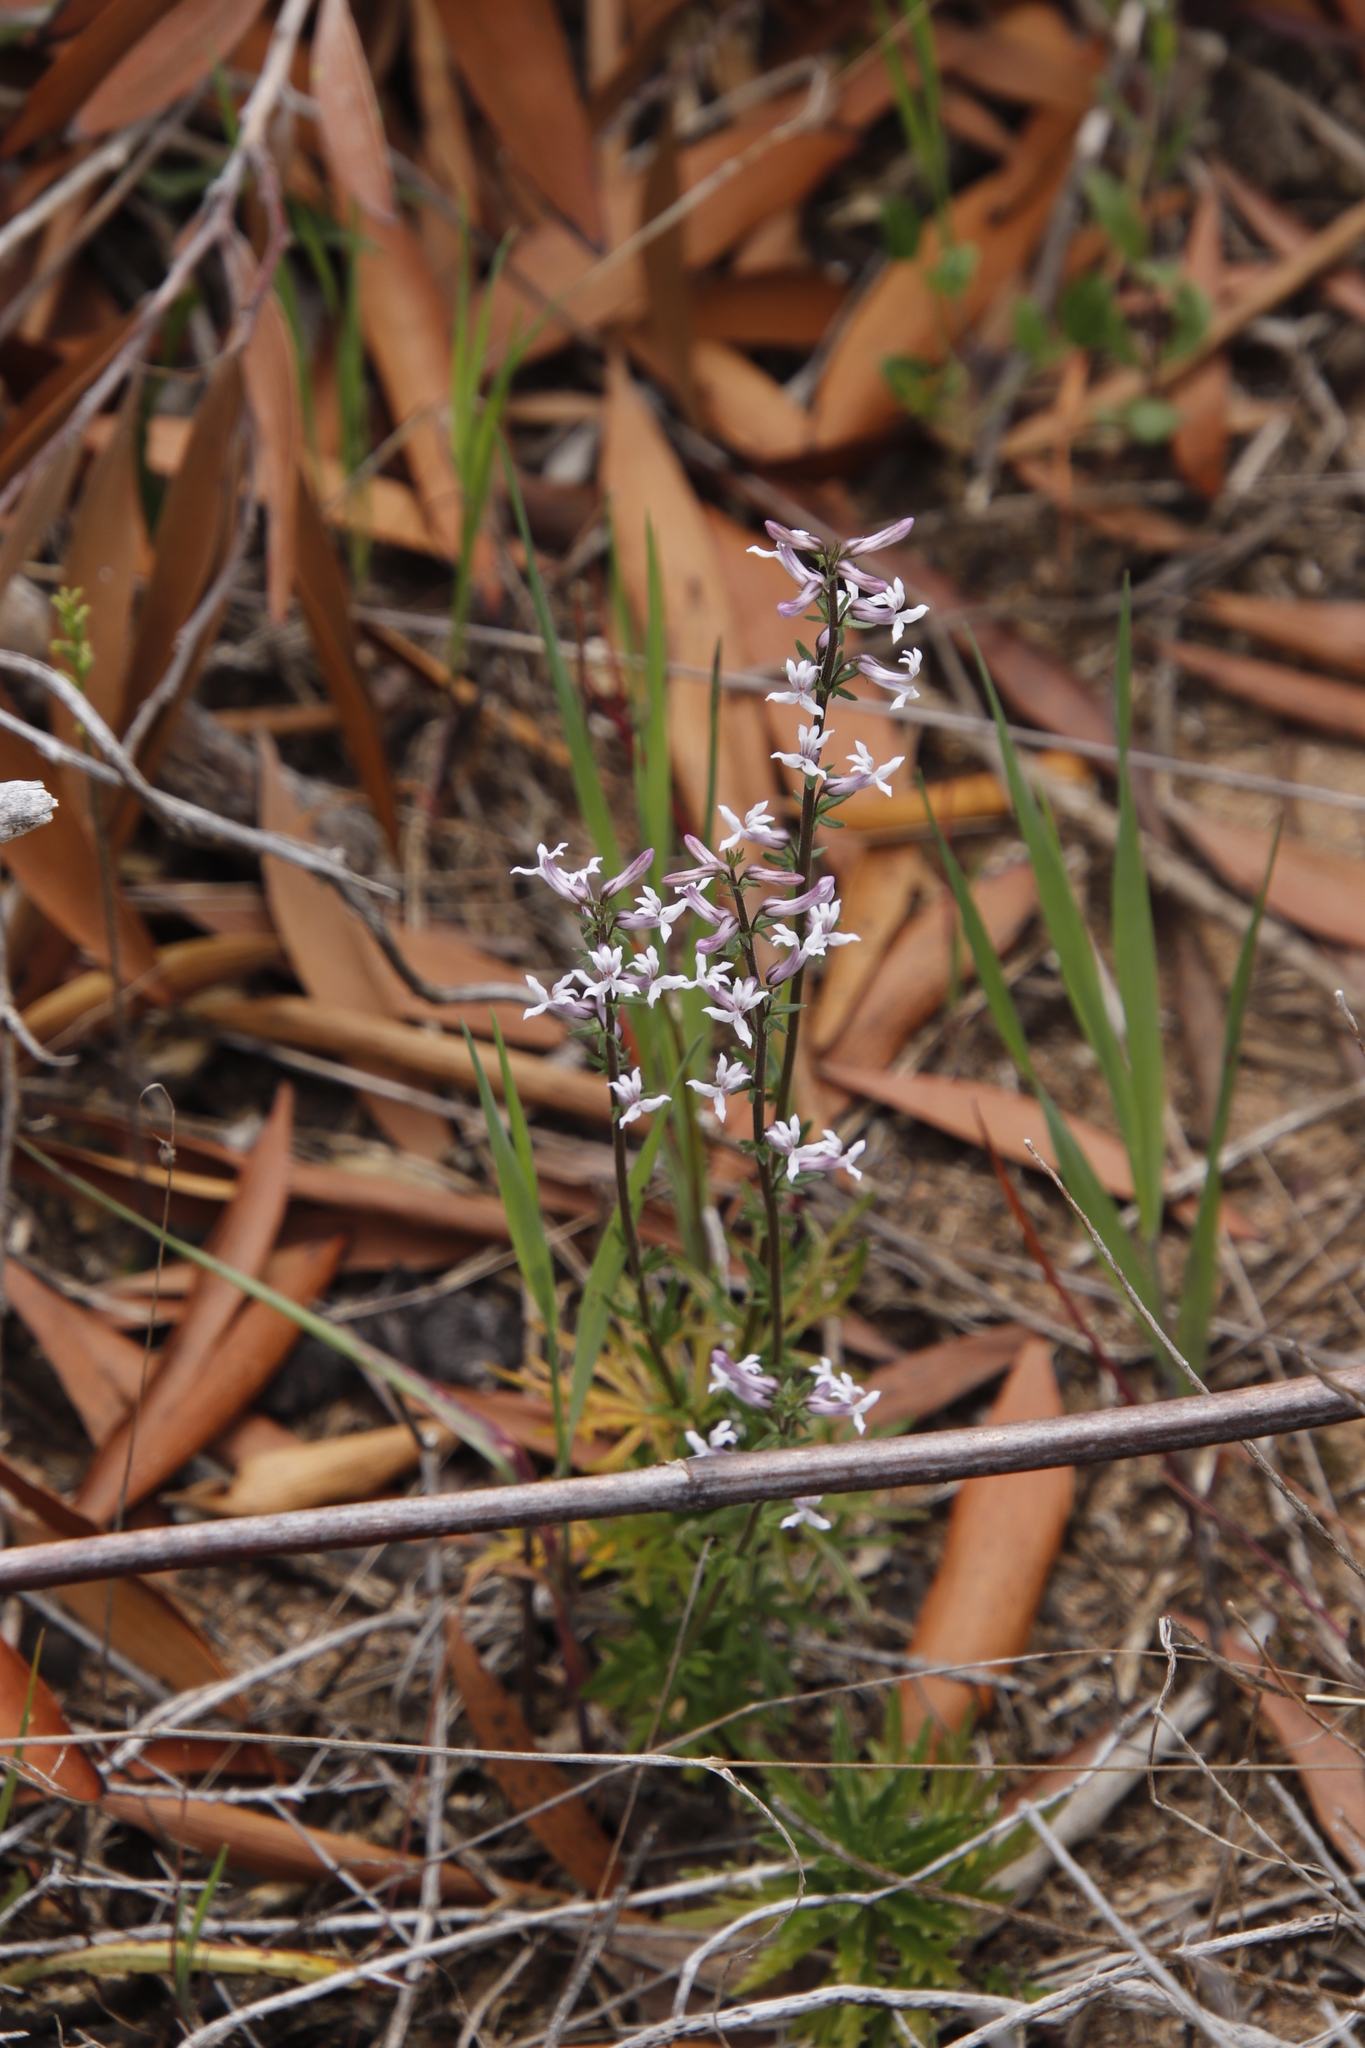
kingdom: Plantae
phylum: Tracheophyta
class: Magnoliopsida
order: Asterales
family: Campanulaceae
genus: Cyphia
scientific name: Cyphia bulbosa
